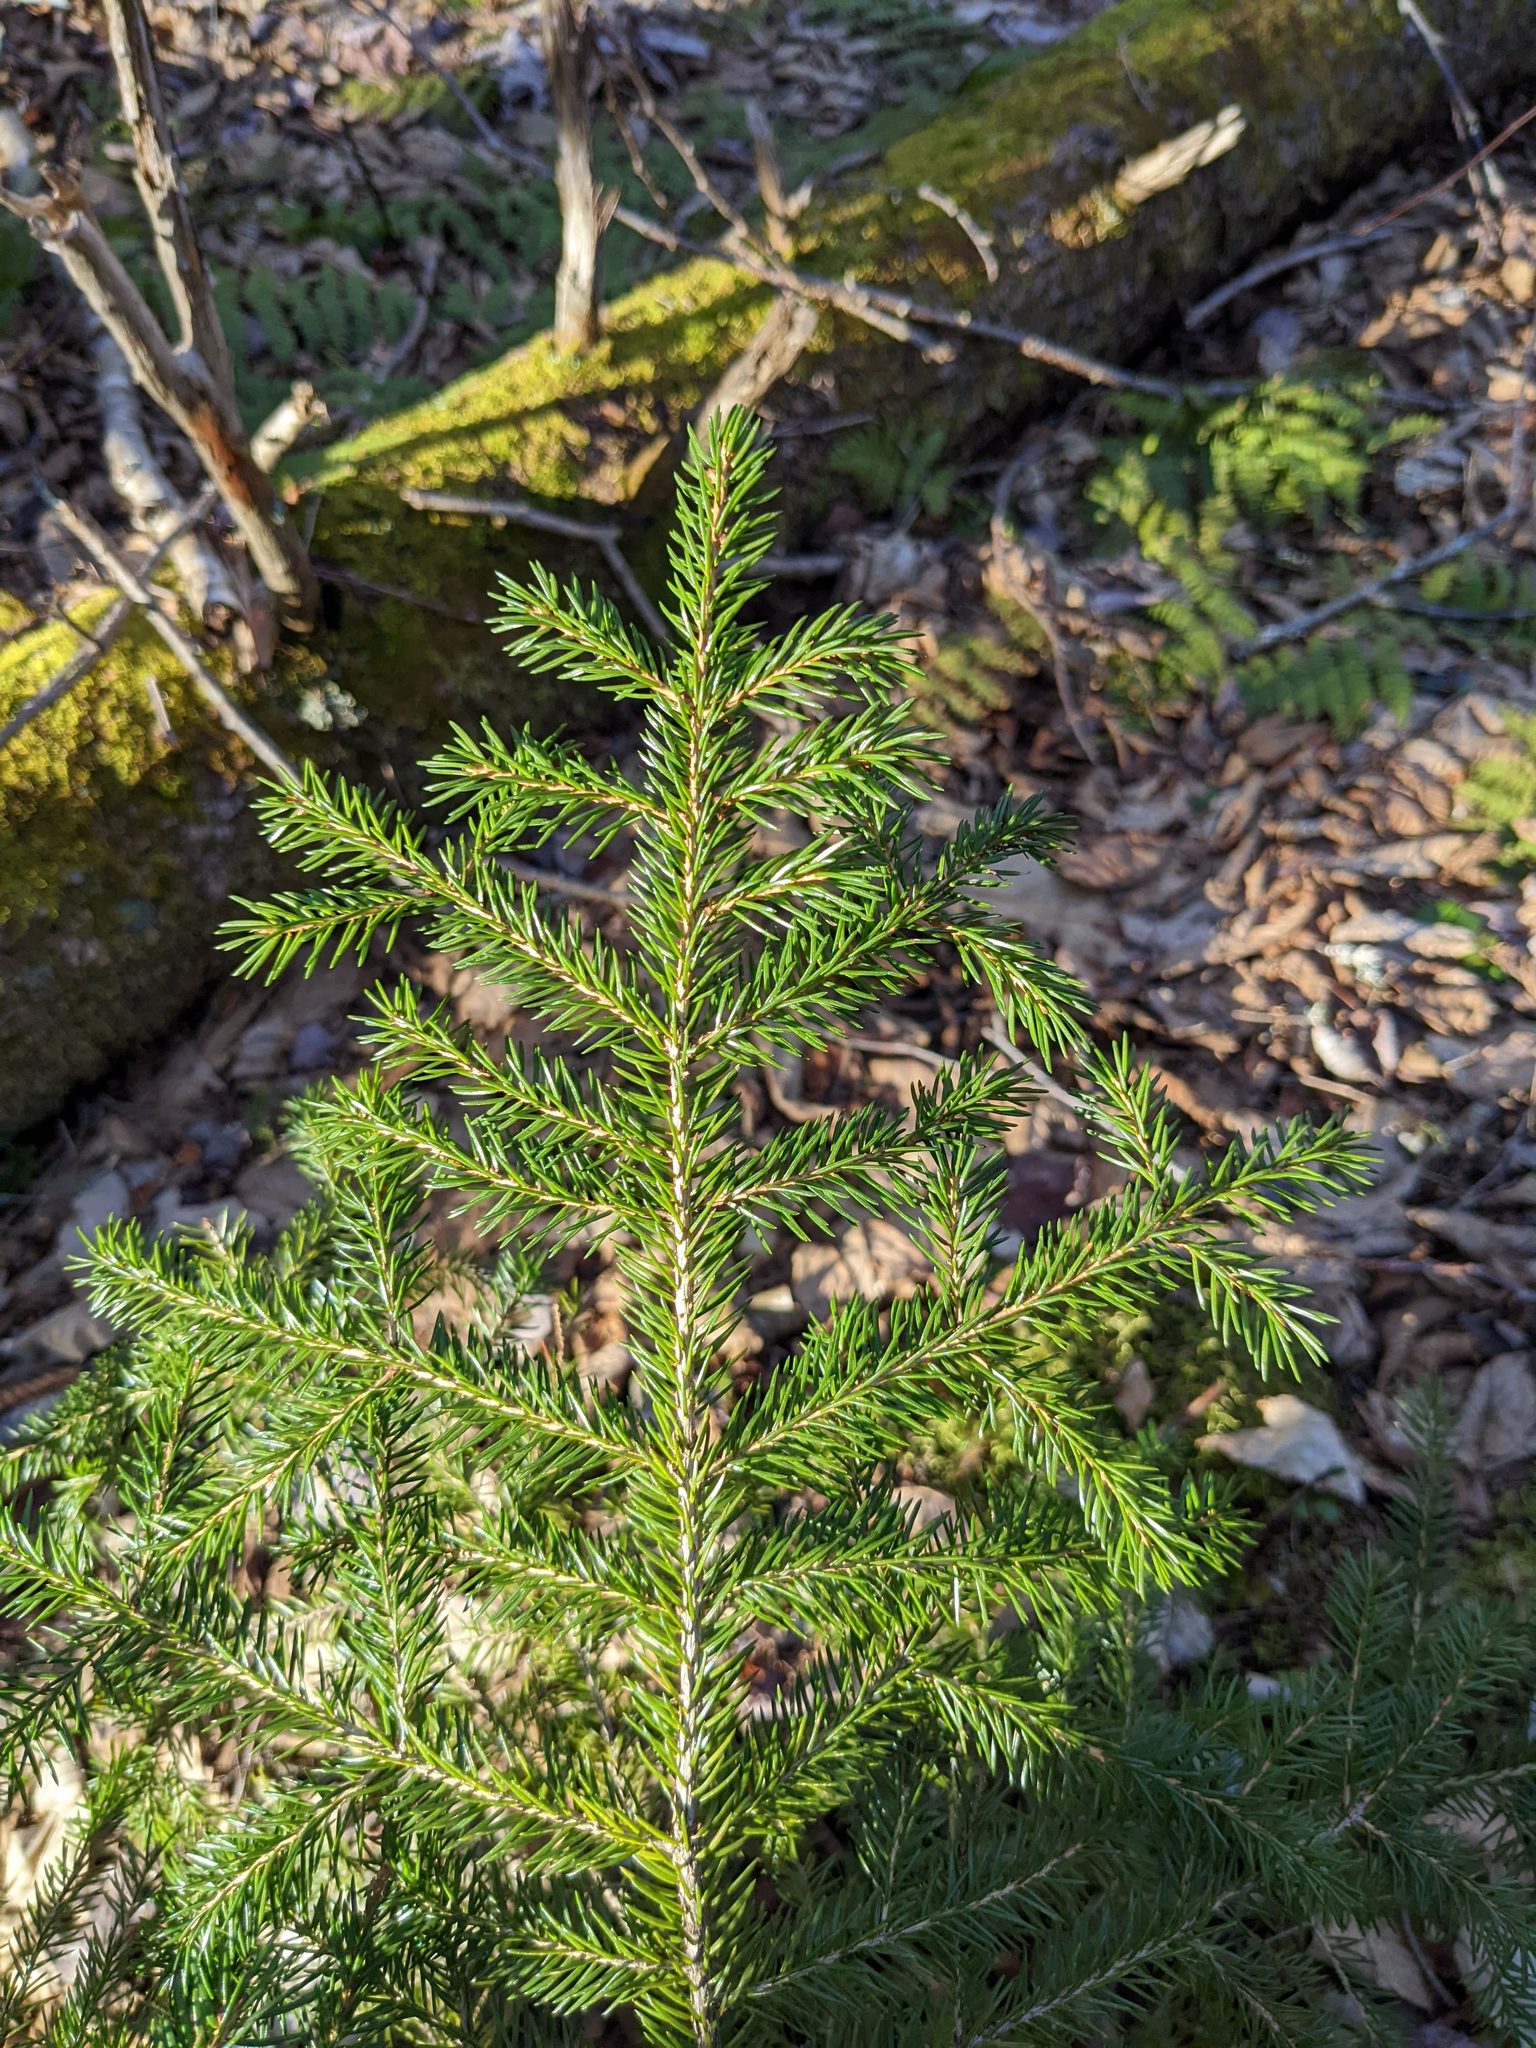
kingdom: Plantae
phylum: Tracheophyta
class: Pinopsida
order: Pinales
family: Pinaceae
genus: Picea
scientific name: Picea rubens
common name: Red spruce
